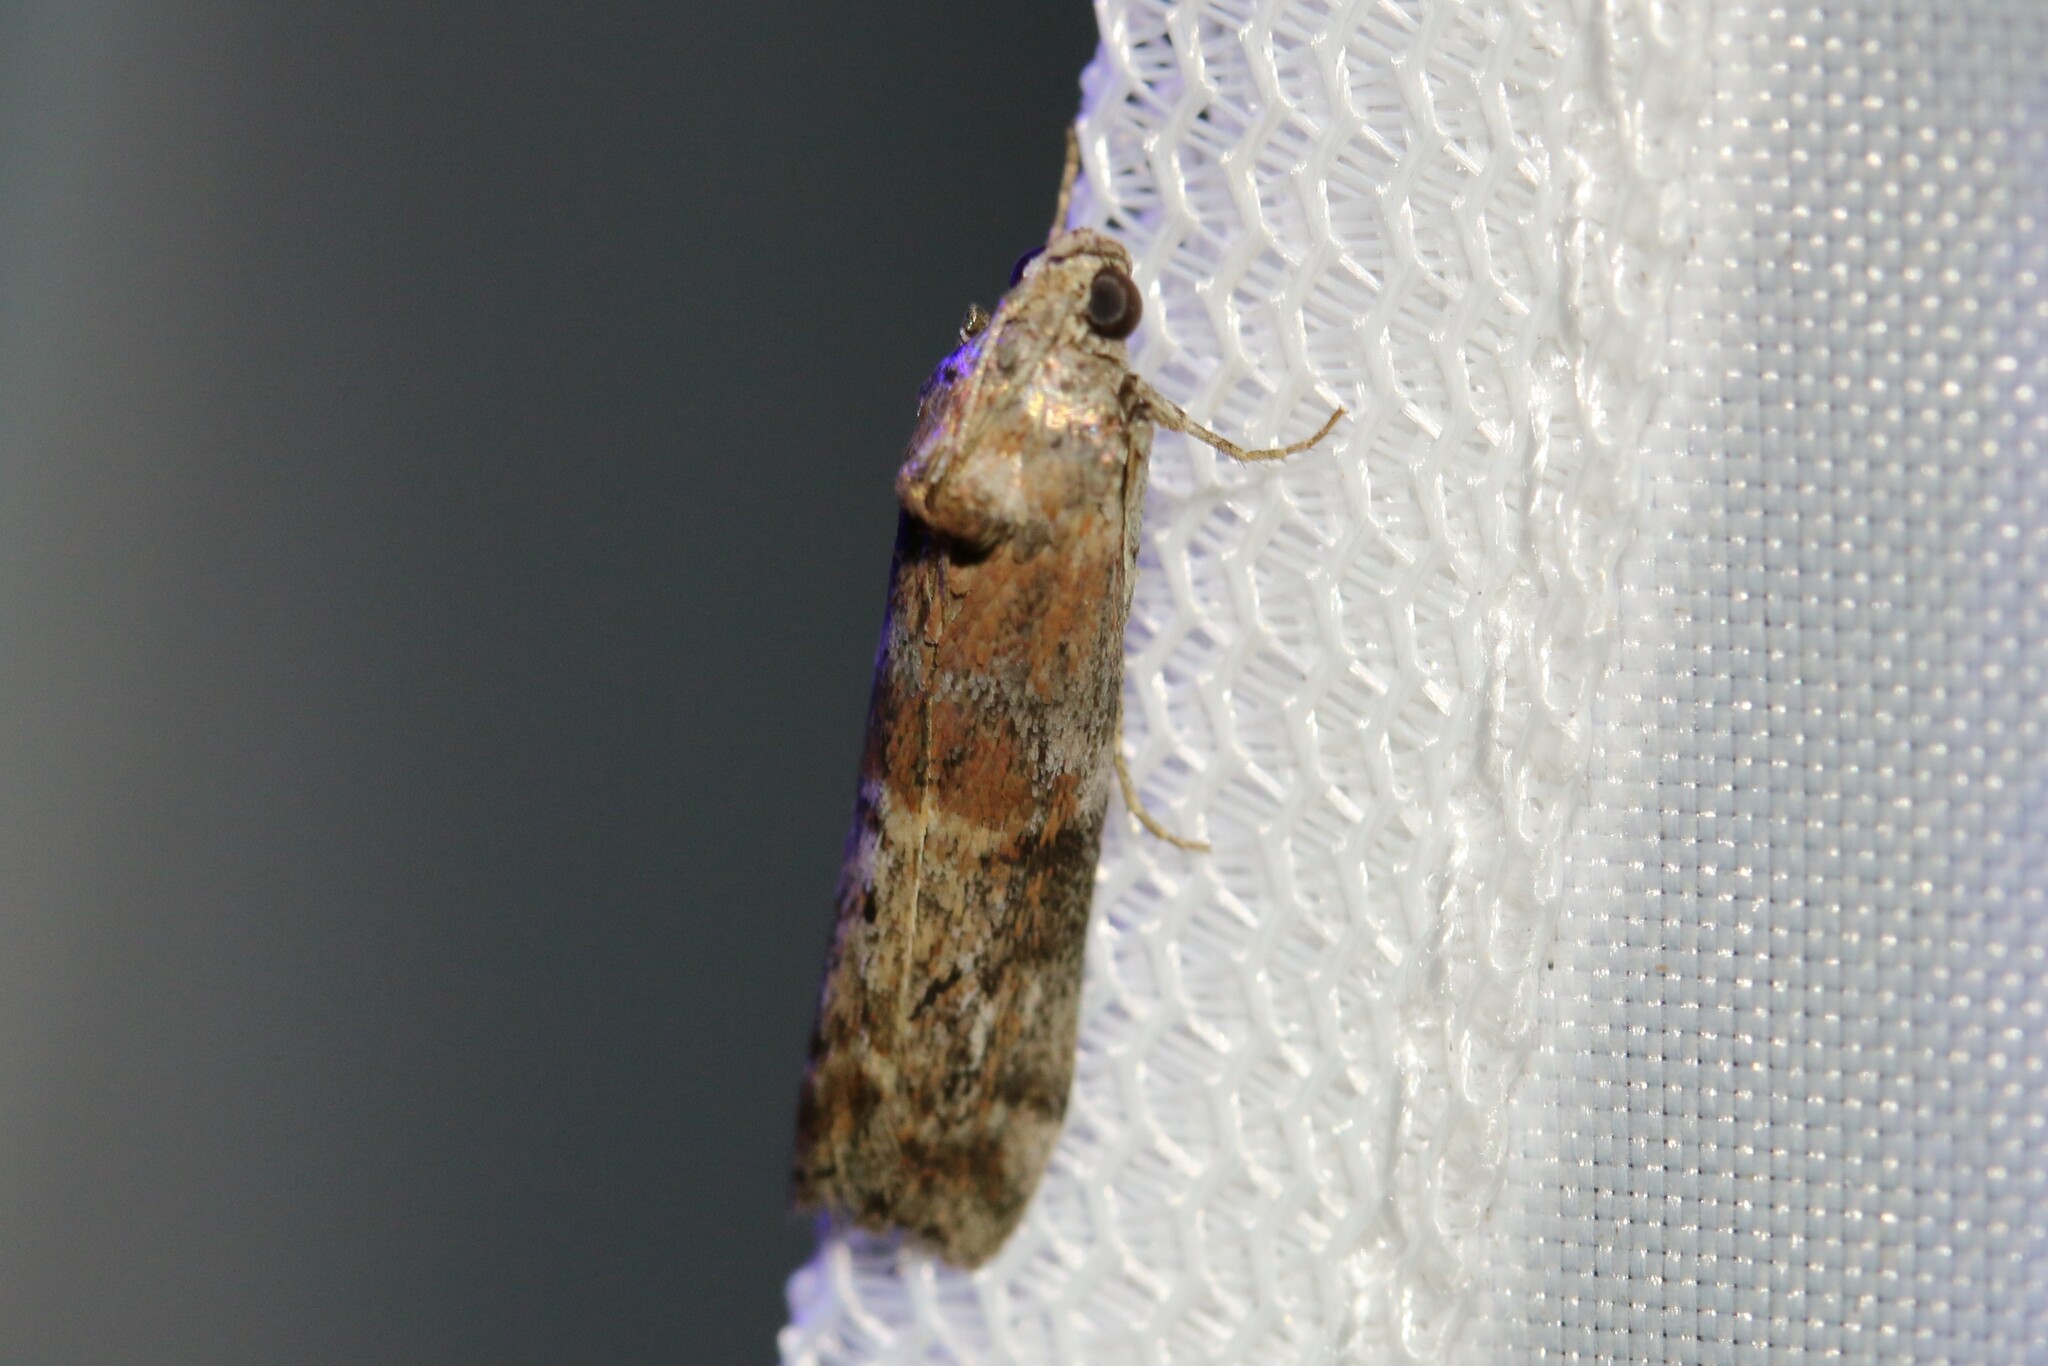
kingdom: Animalia
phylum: Arthropoda
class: Insecta
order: Lepidoptera
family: Pyralidae
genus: Phycita
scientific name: Phycita roborella
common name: Dotted oak knot-horn
